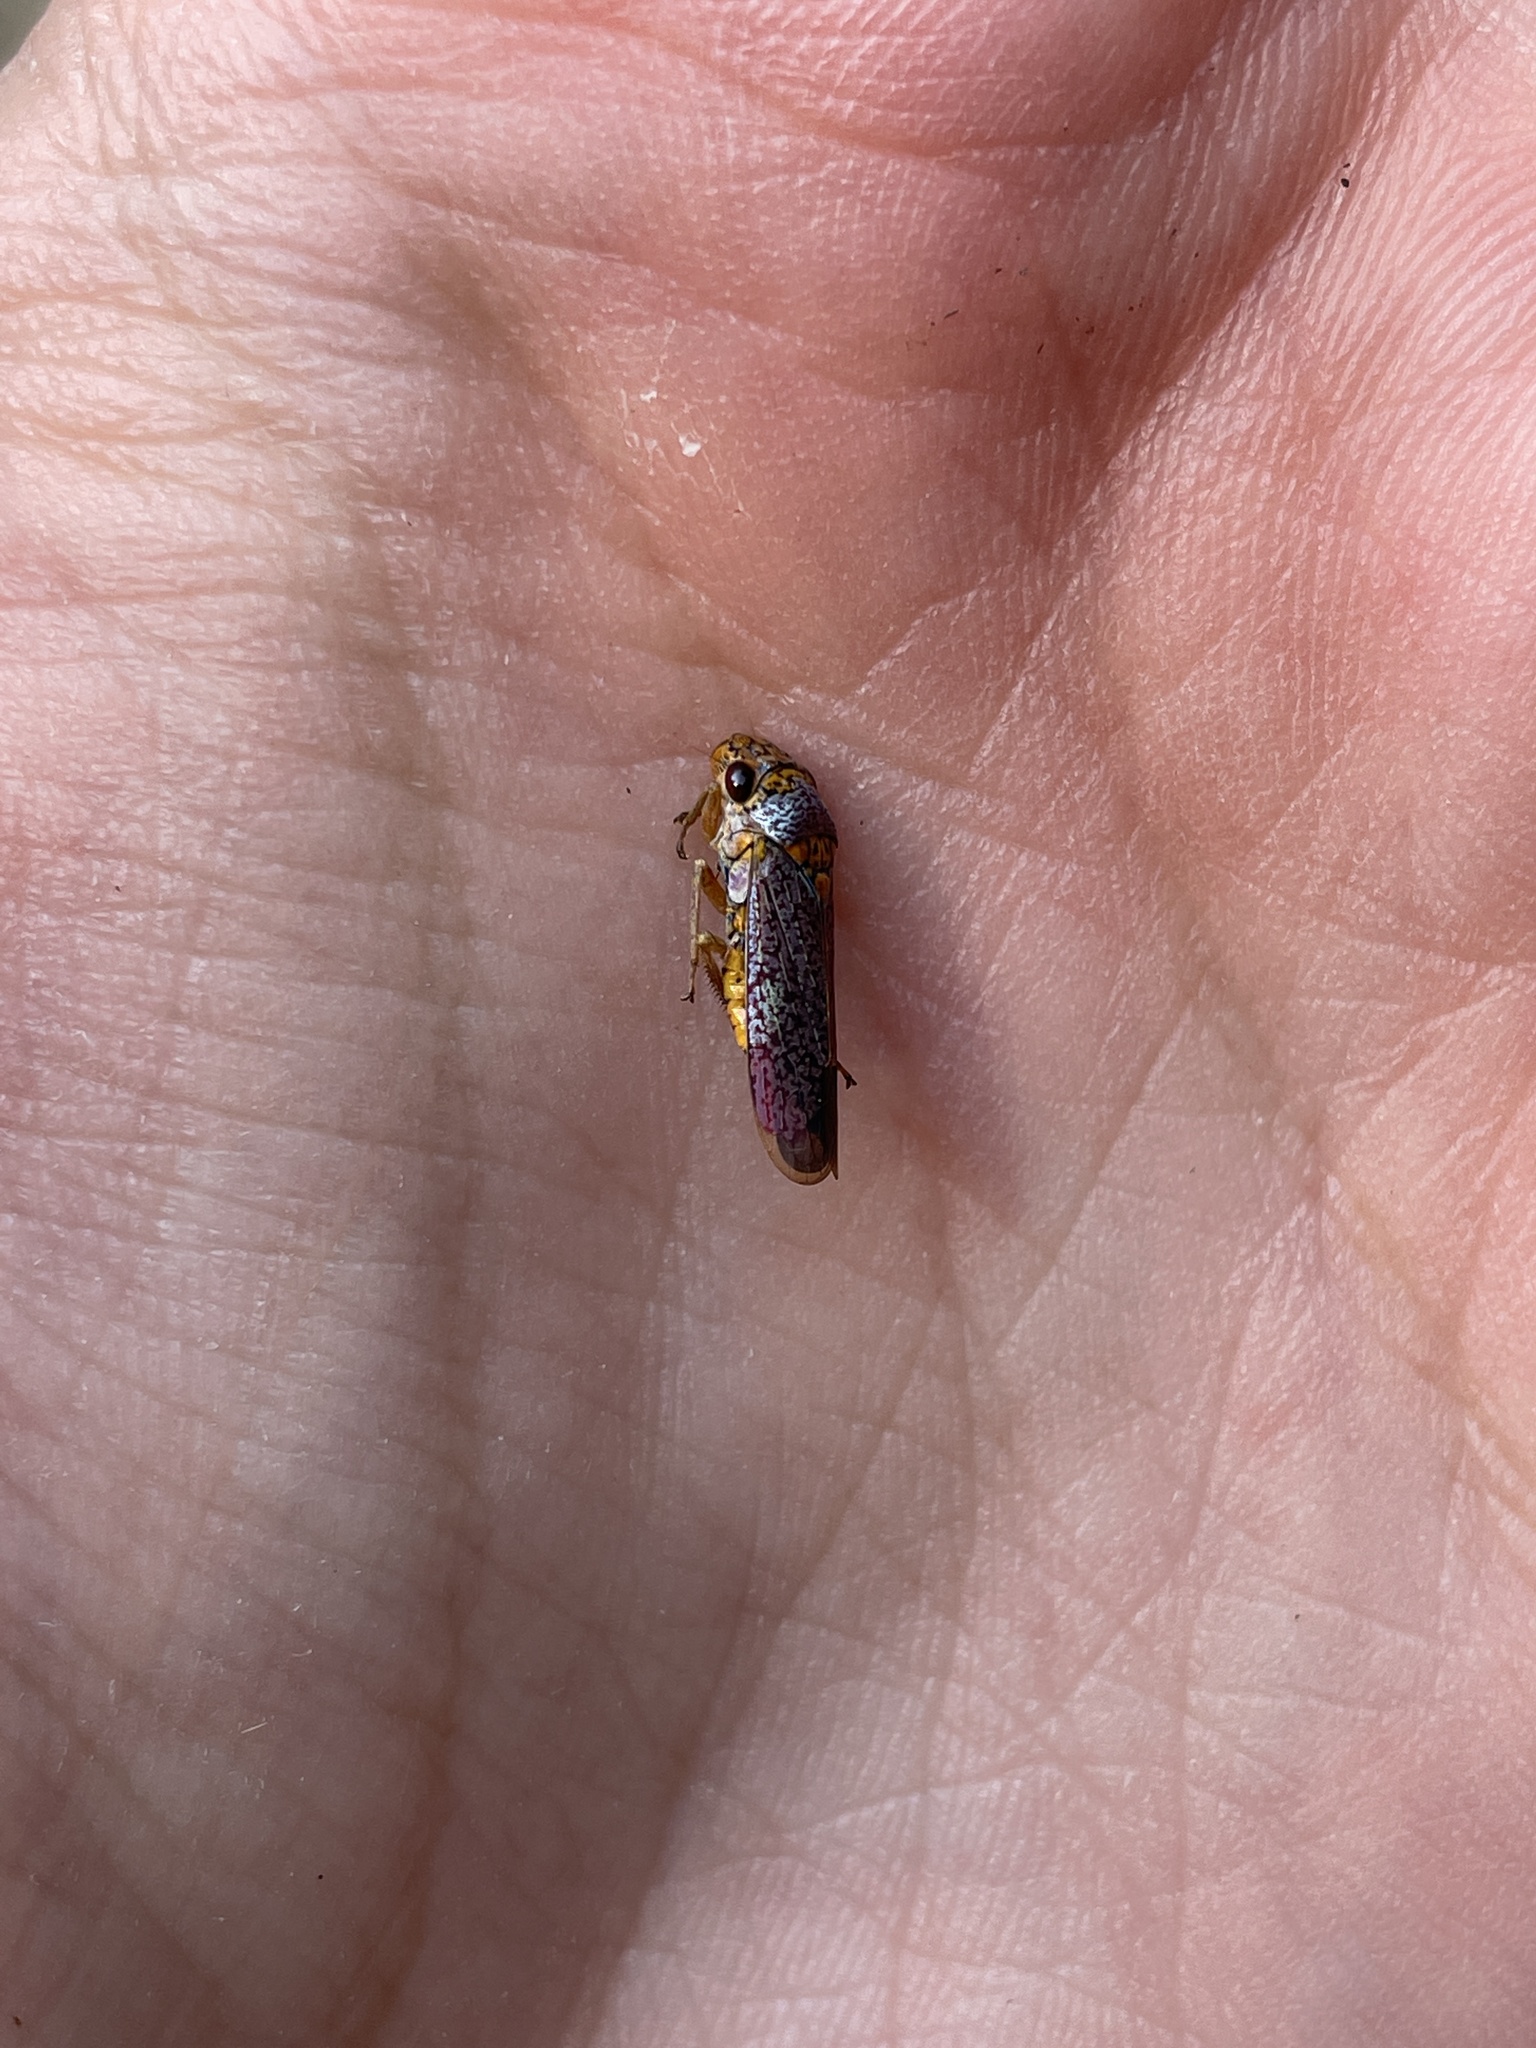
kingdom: Animalia
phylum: Arthropoda
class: Insecta
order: Hemiptera
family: Cicadellidae
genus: Oncometopia
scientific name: Oncometopia orbona
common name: Broad-headed sharpshooter
